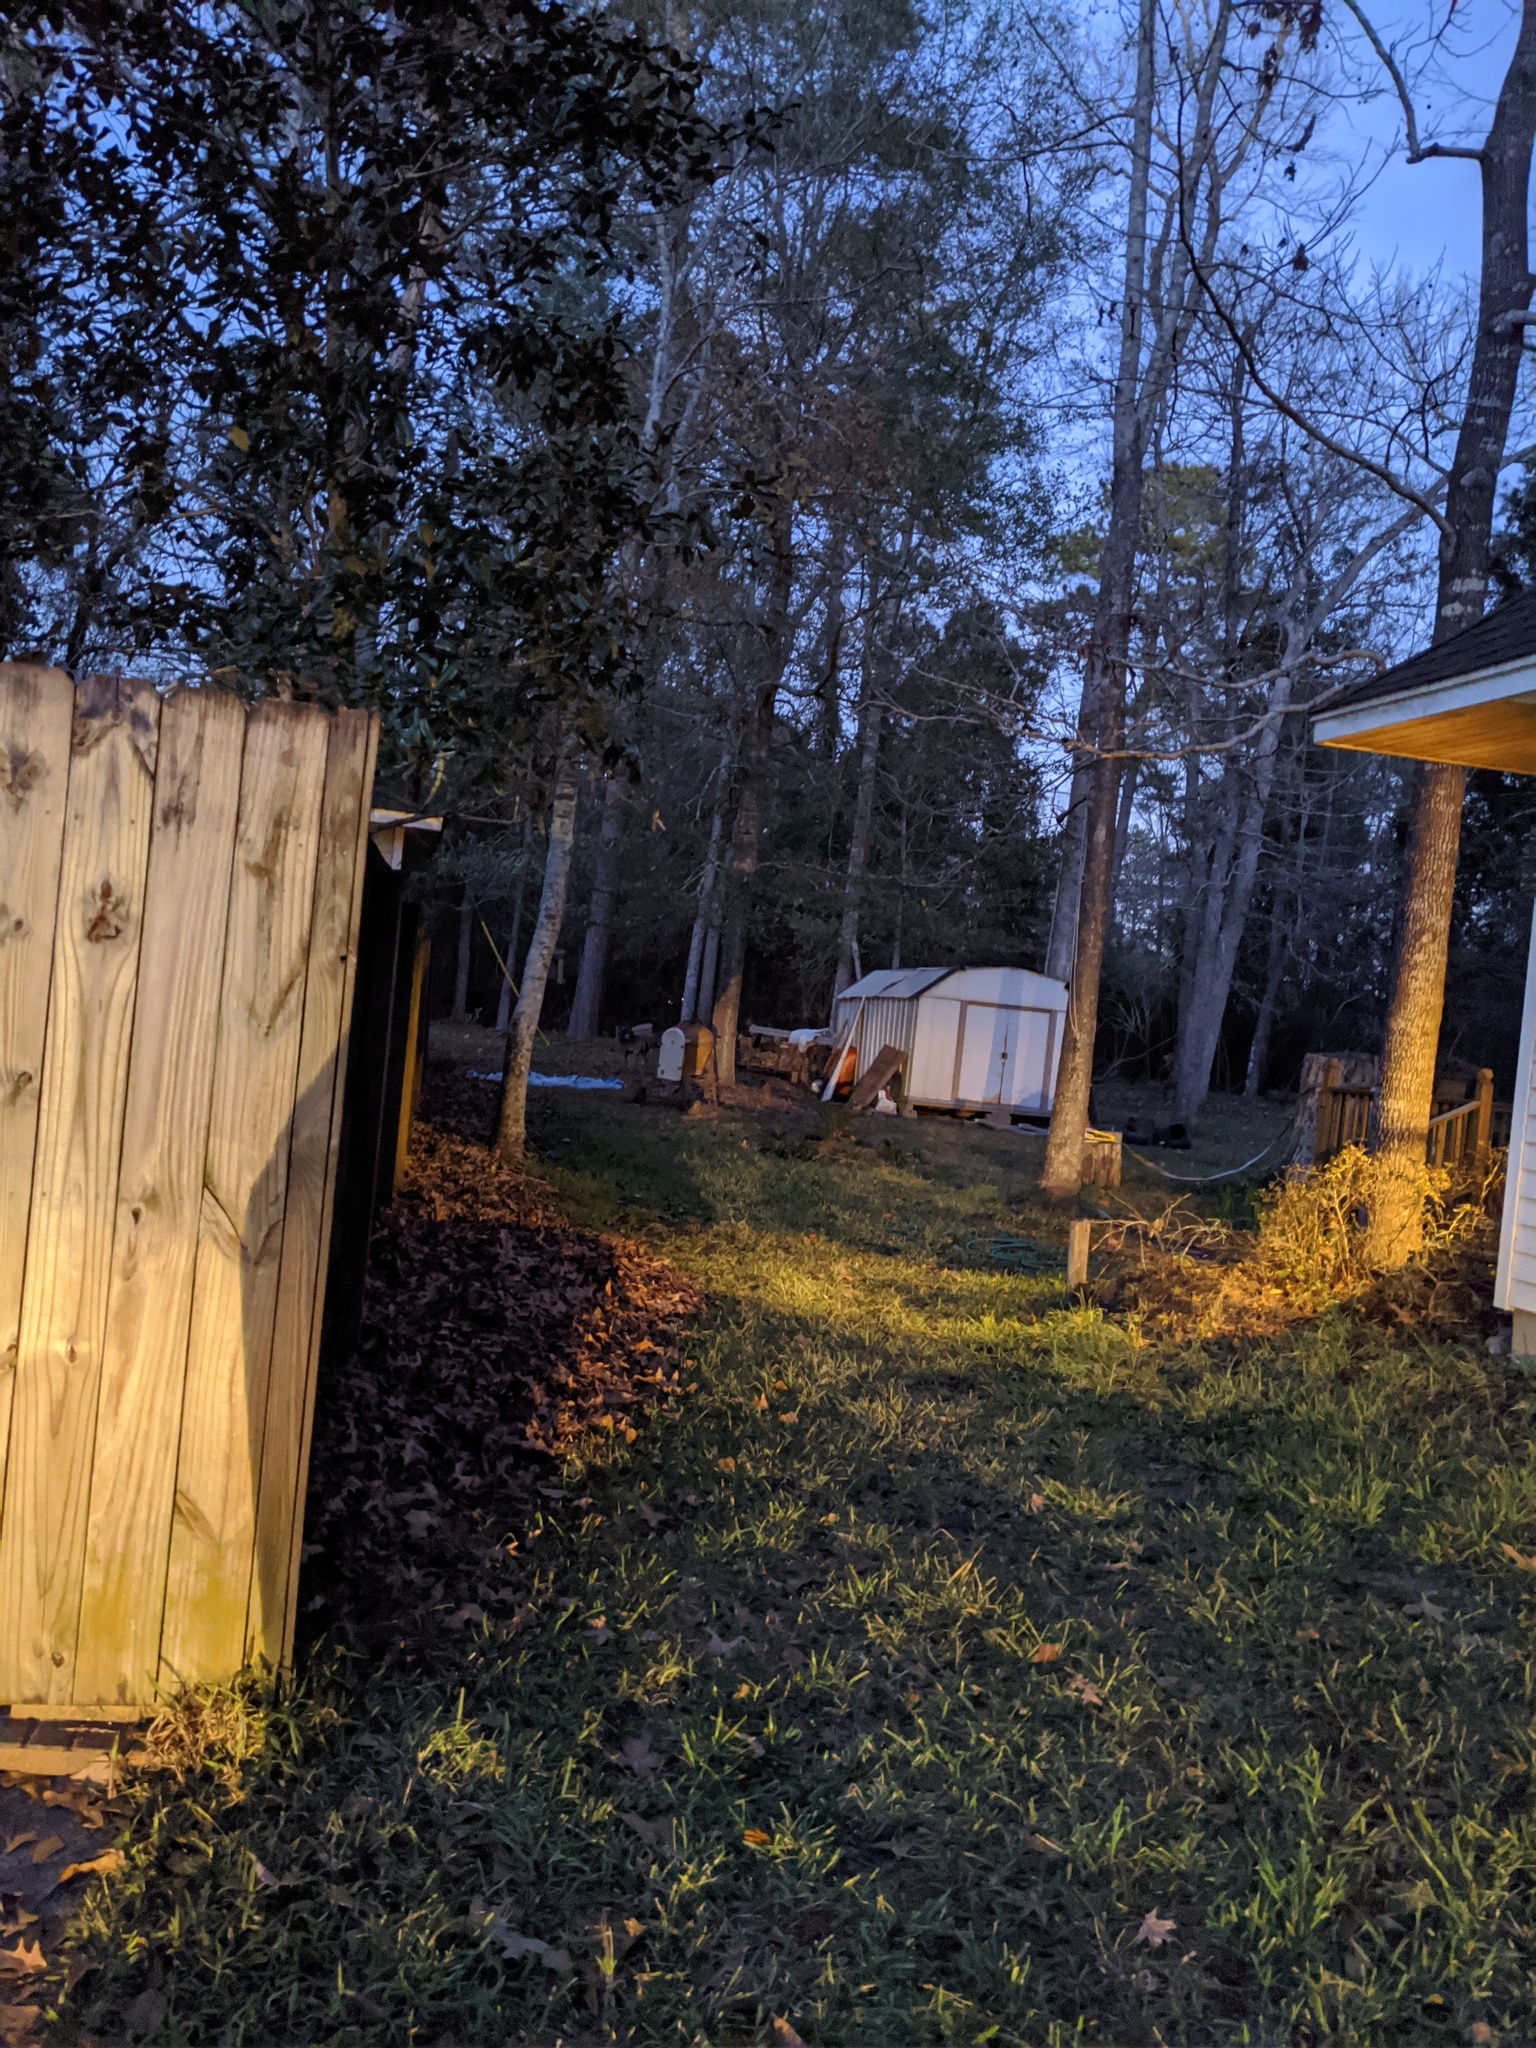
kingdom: Animalia
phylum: Chordata
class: Mammalia
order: Artiodactyla
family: Cervidae
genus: Odocoileus
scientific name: Odocoileus virginianus
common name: White-tailed deer
